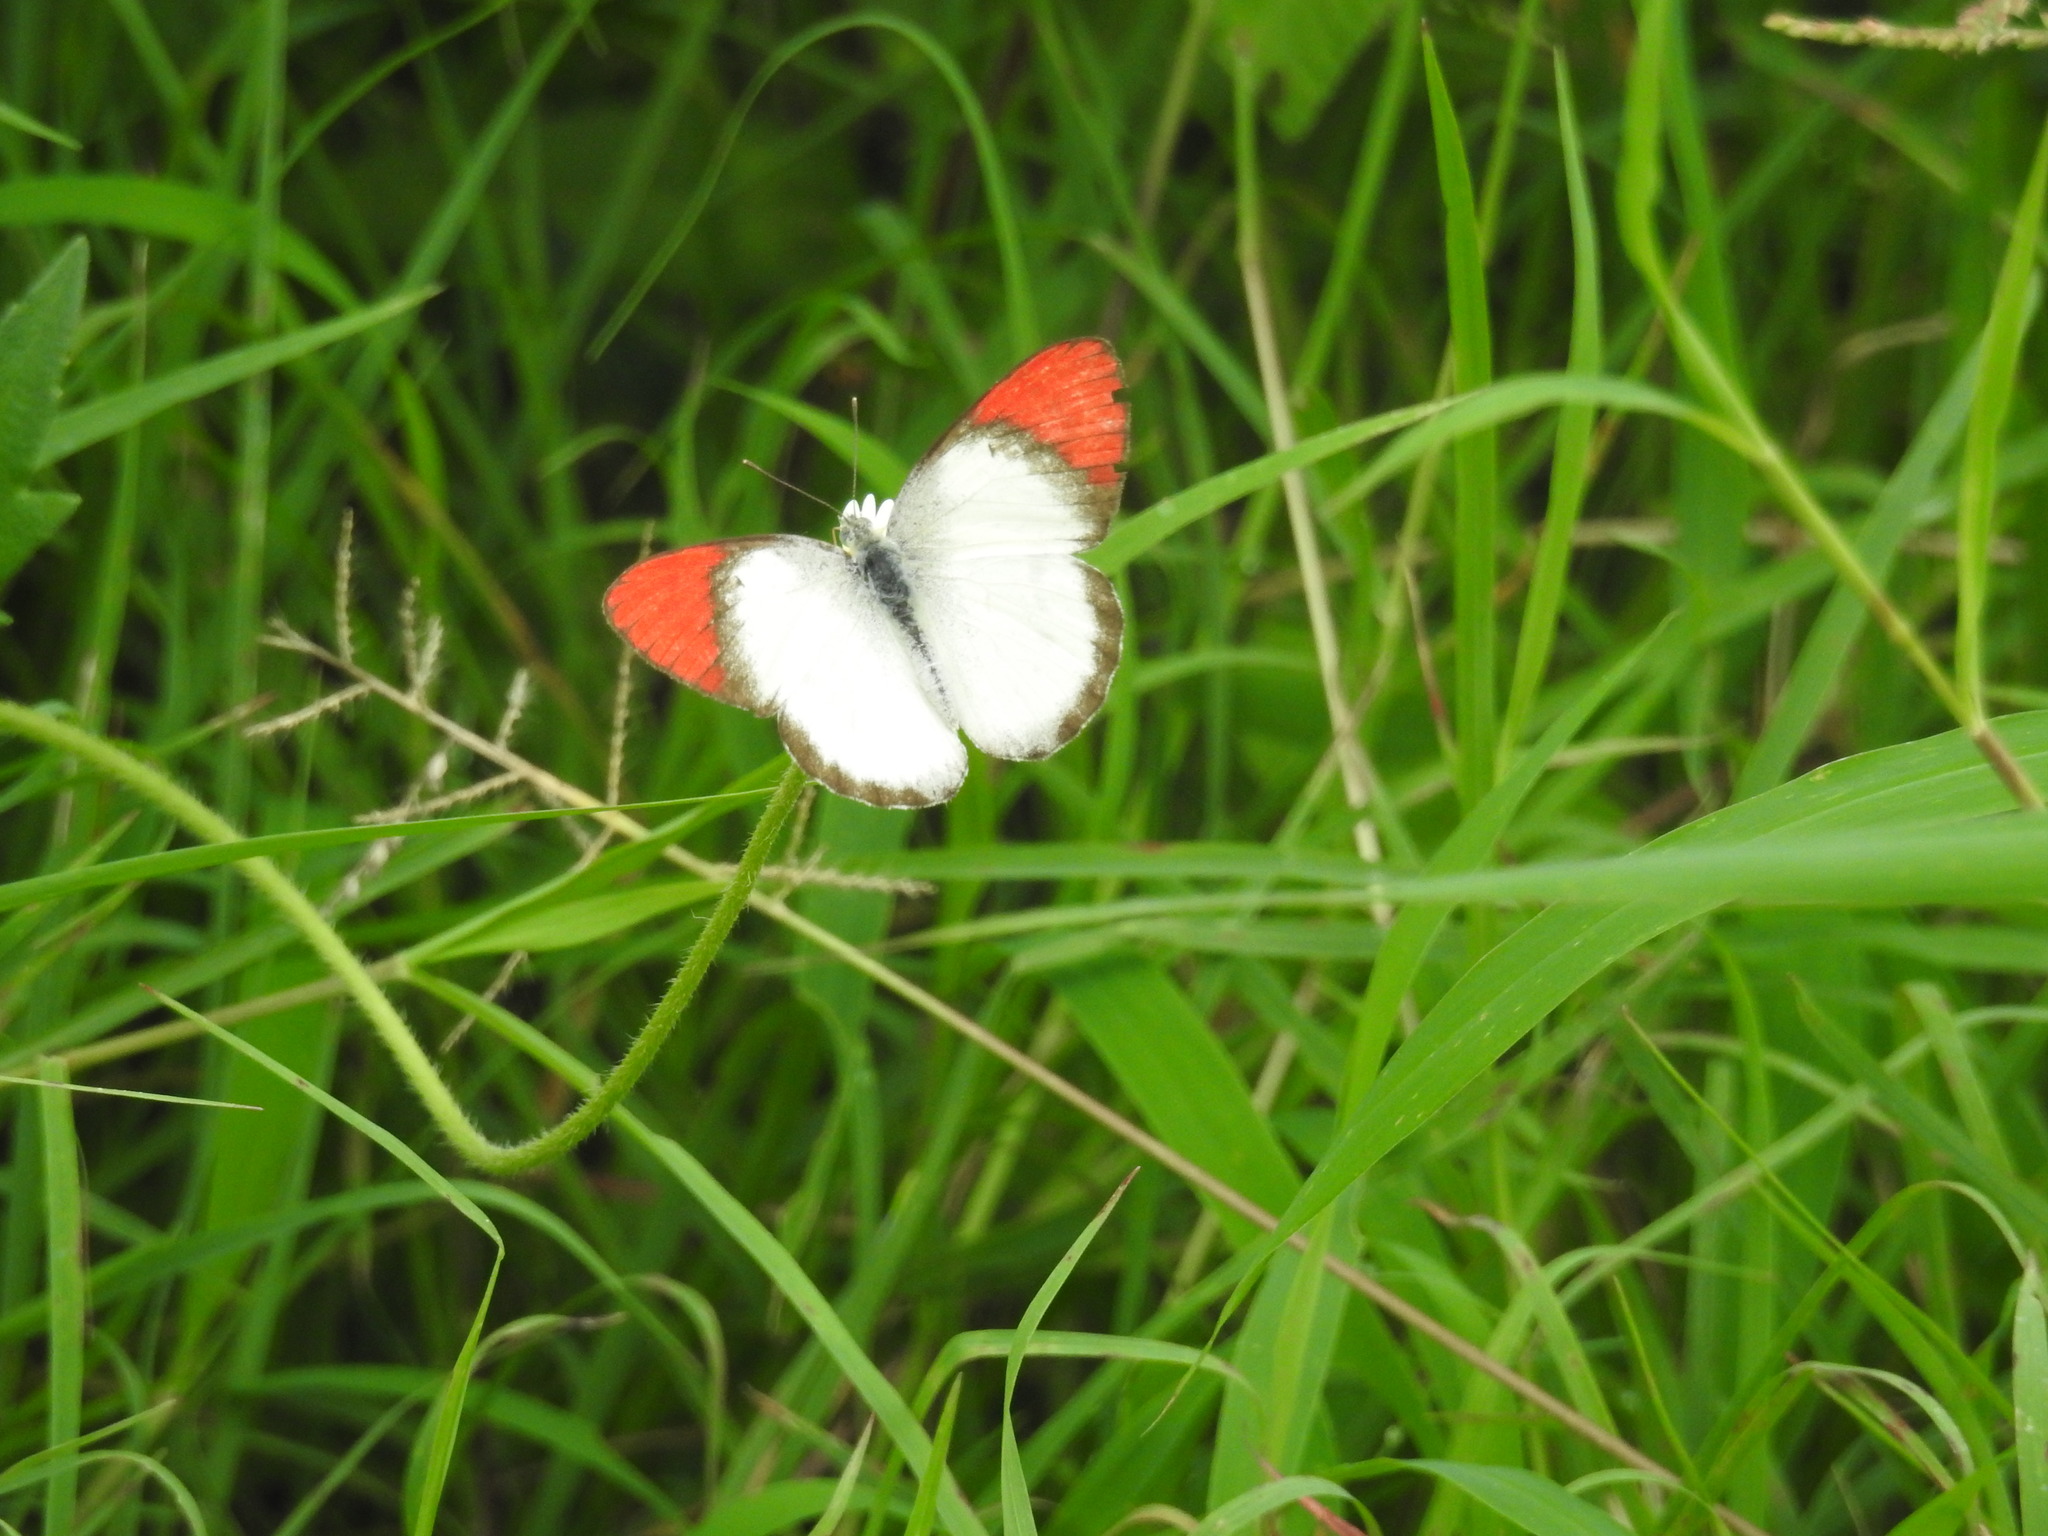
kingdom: Animalia
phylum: Arthropoda
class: Insecta
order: Lepidoptera
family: Pieridae
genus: Colotis
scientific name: Colotis danae
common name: Crimson tip
